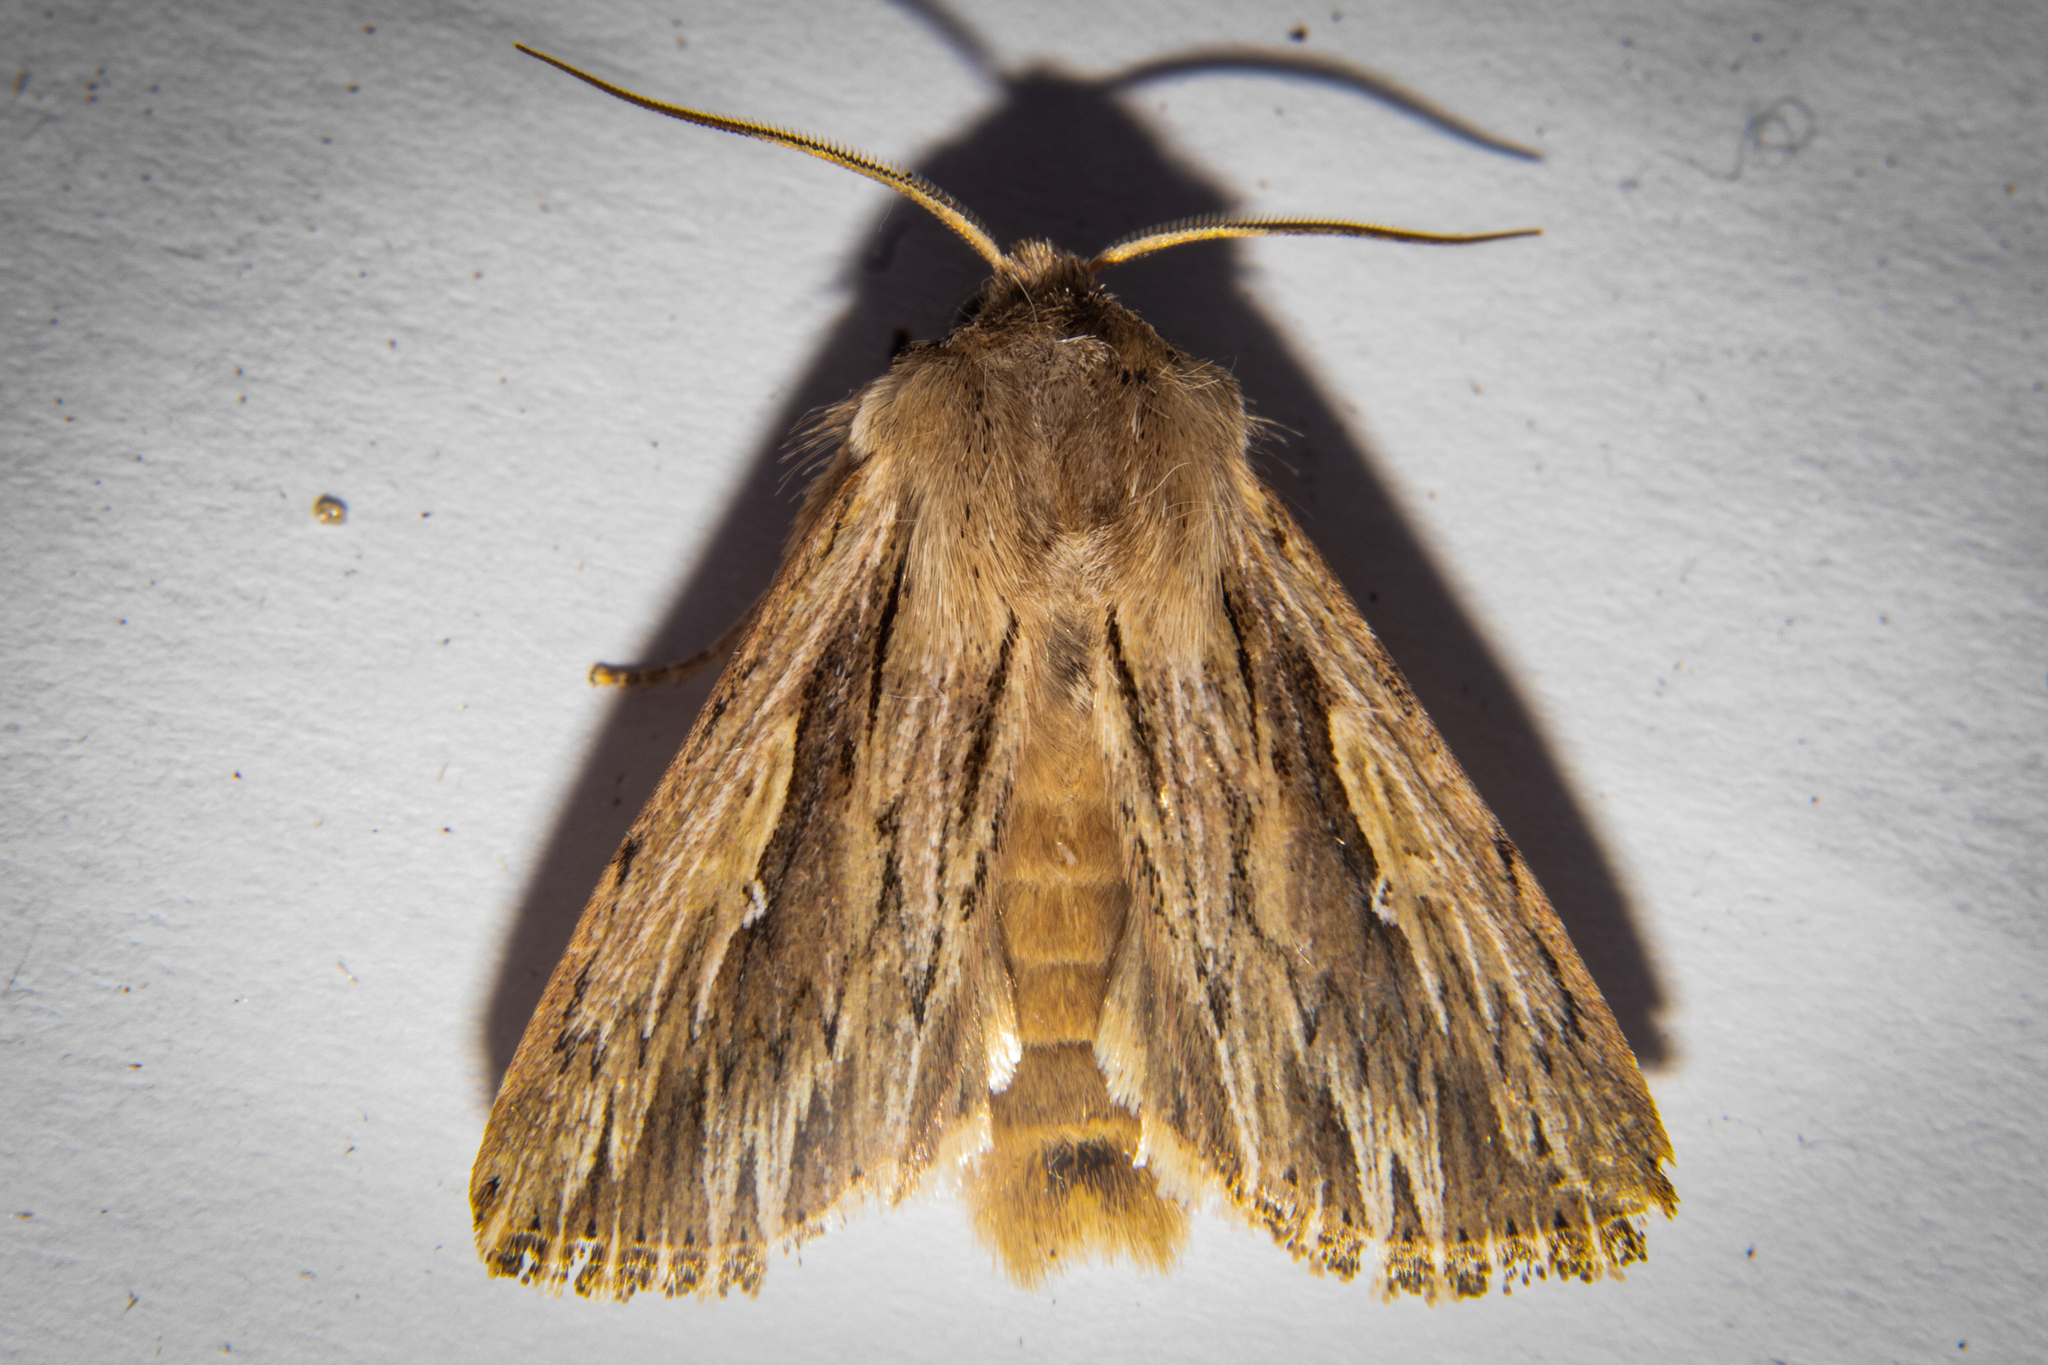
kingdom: Animalia
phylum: Arthropoda
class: Insecta
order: Lepidoptera
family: Noctuidae
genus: Persectania
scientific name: Persectania aversa
